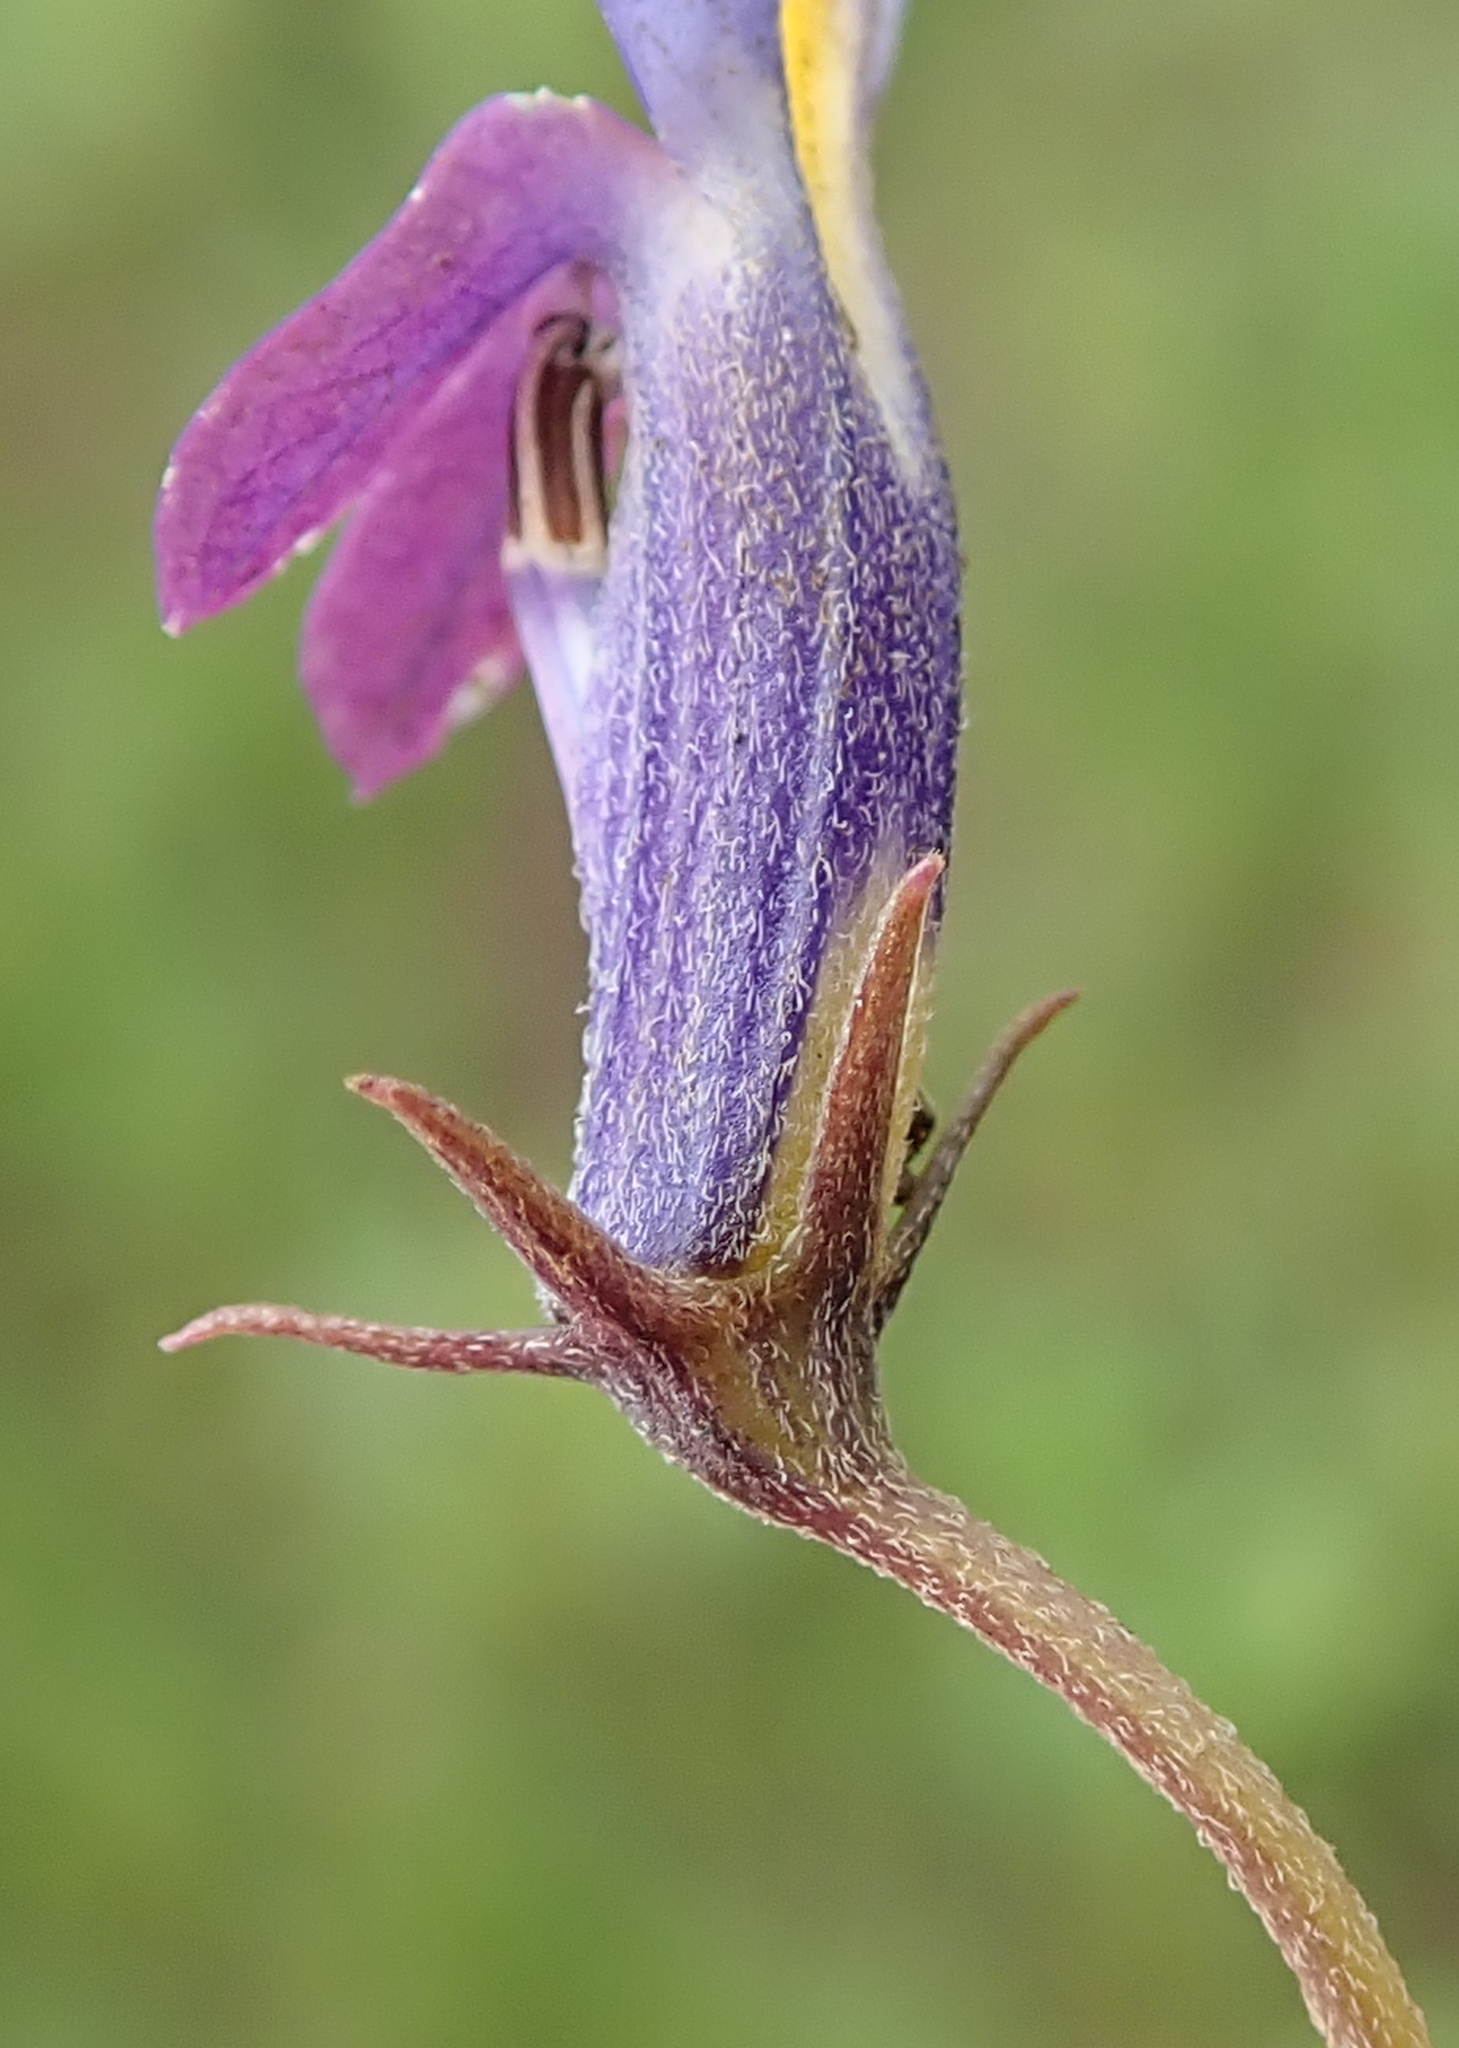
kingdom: Plantae
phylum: Tracheophyta
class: Magnoliopsida
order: Asterales
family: Campanulaceae
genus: Monopsis
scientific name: Monopsis decipiens
